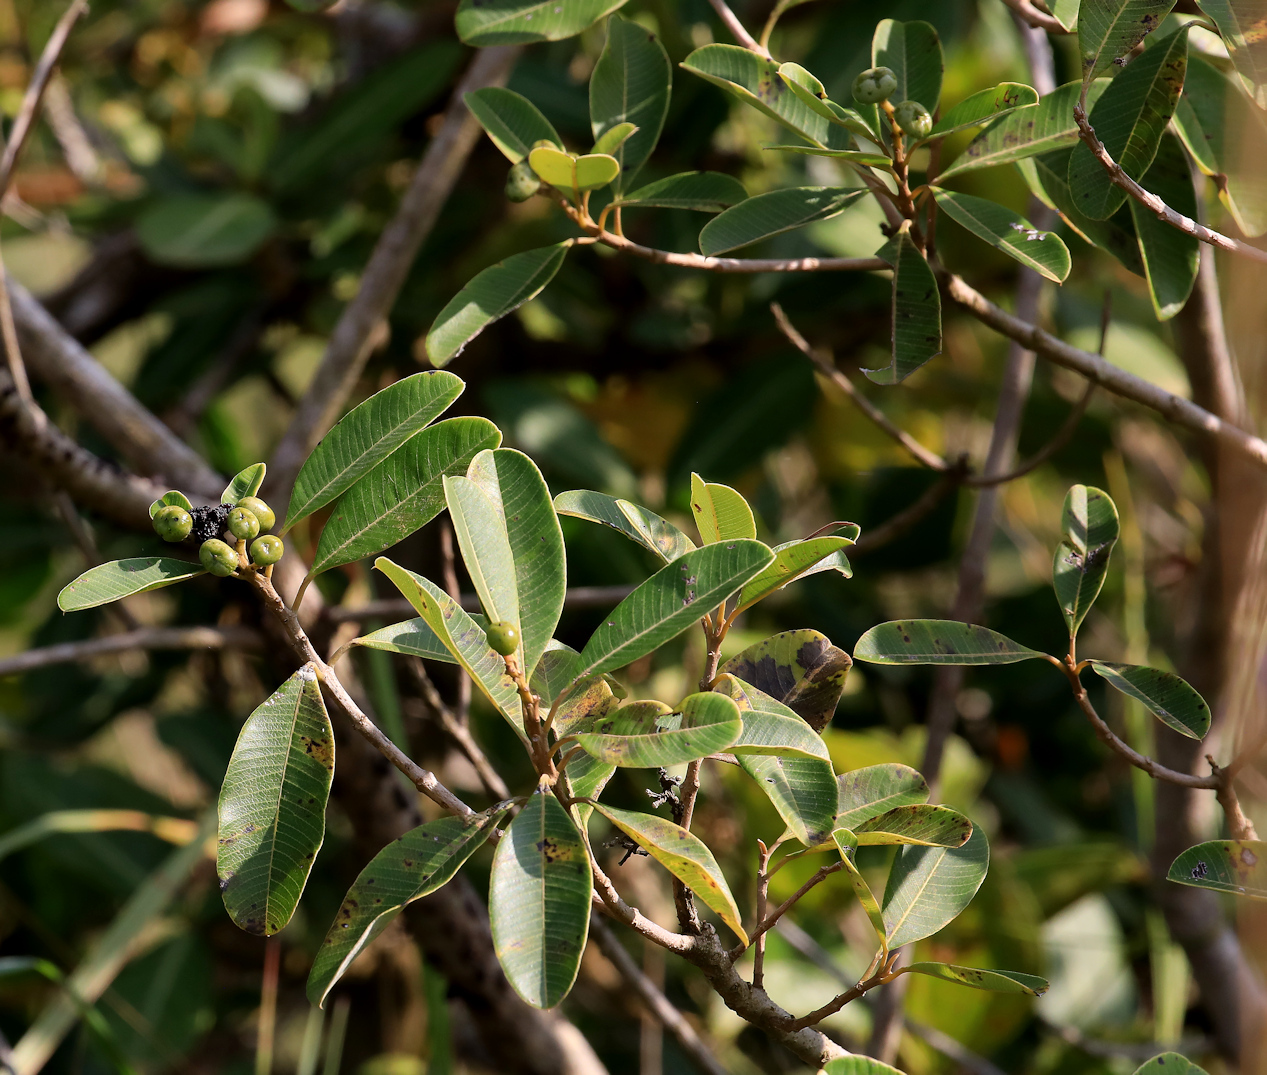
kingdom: Plantae
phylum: Tracheophyta
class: Magnoliopsida
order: Sapindales
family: Anacardiaceae
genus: Ozoroa
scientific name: Ozoroa obovata
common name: Broad-leaved resin tree
